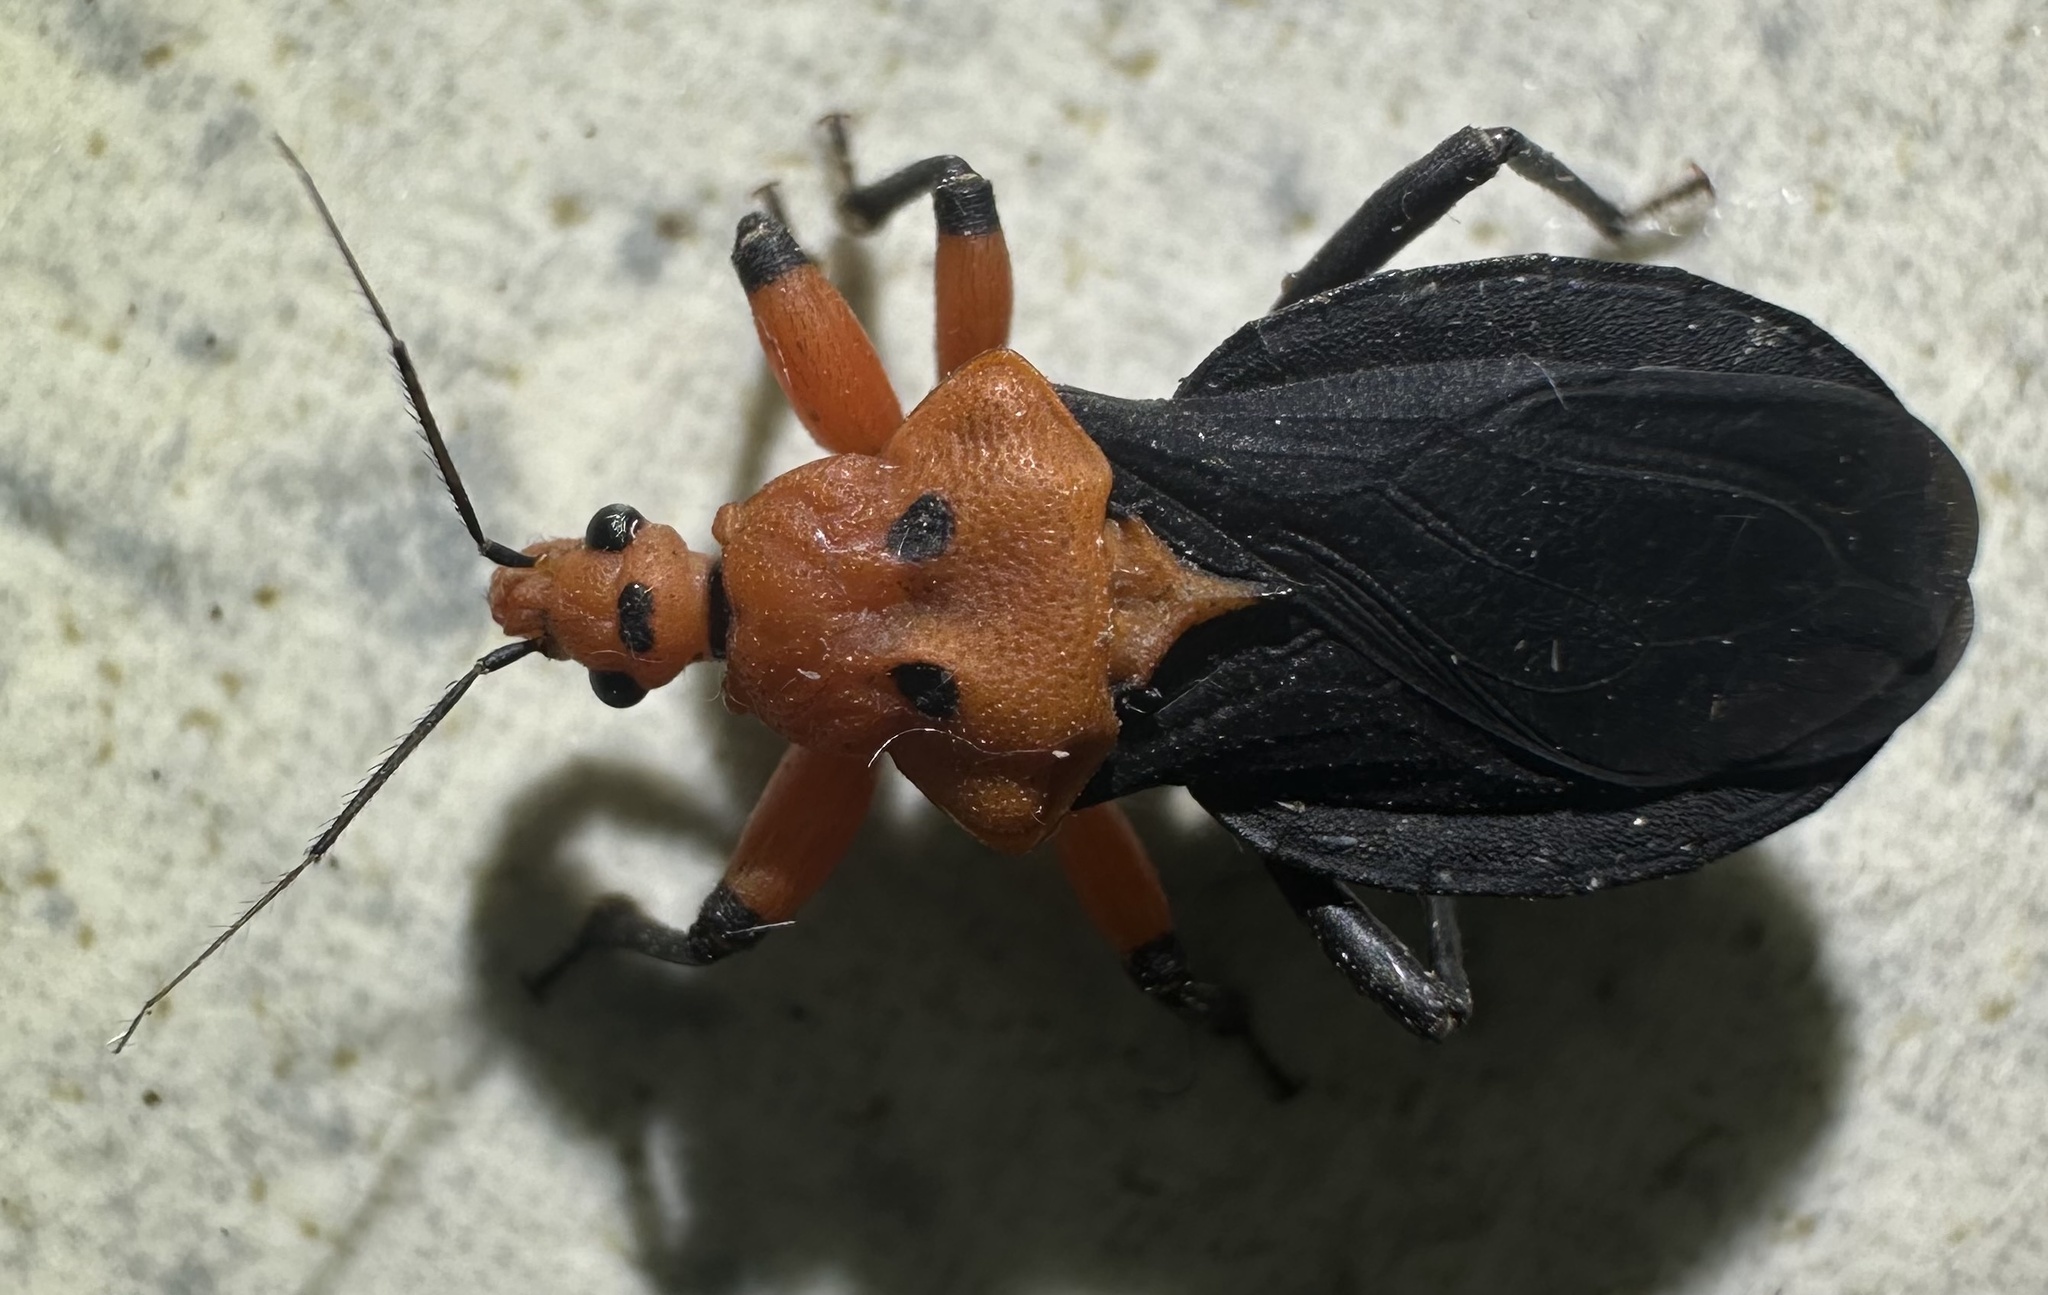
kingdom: Animalia
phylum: Arthropoda
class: Insecta
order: Hemiptera
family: Reduviidae
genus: Phonergates
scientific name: Phonergates nigriventris
